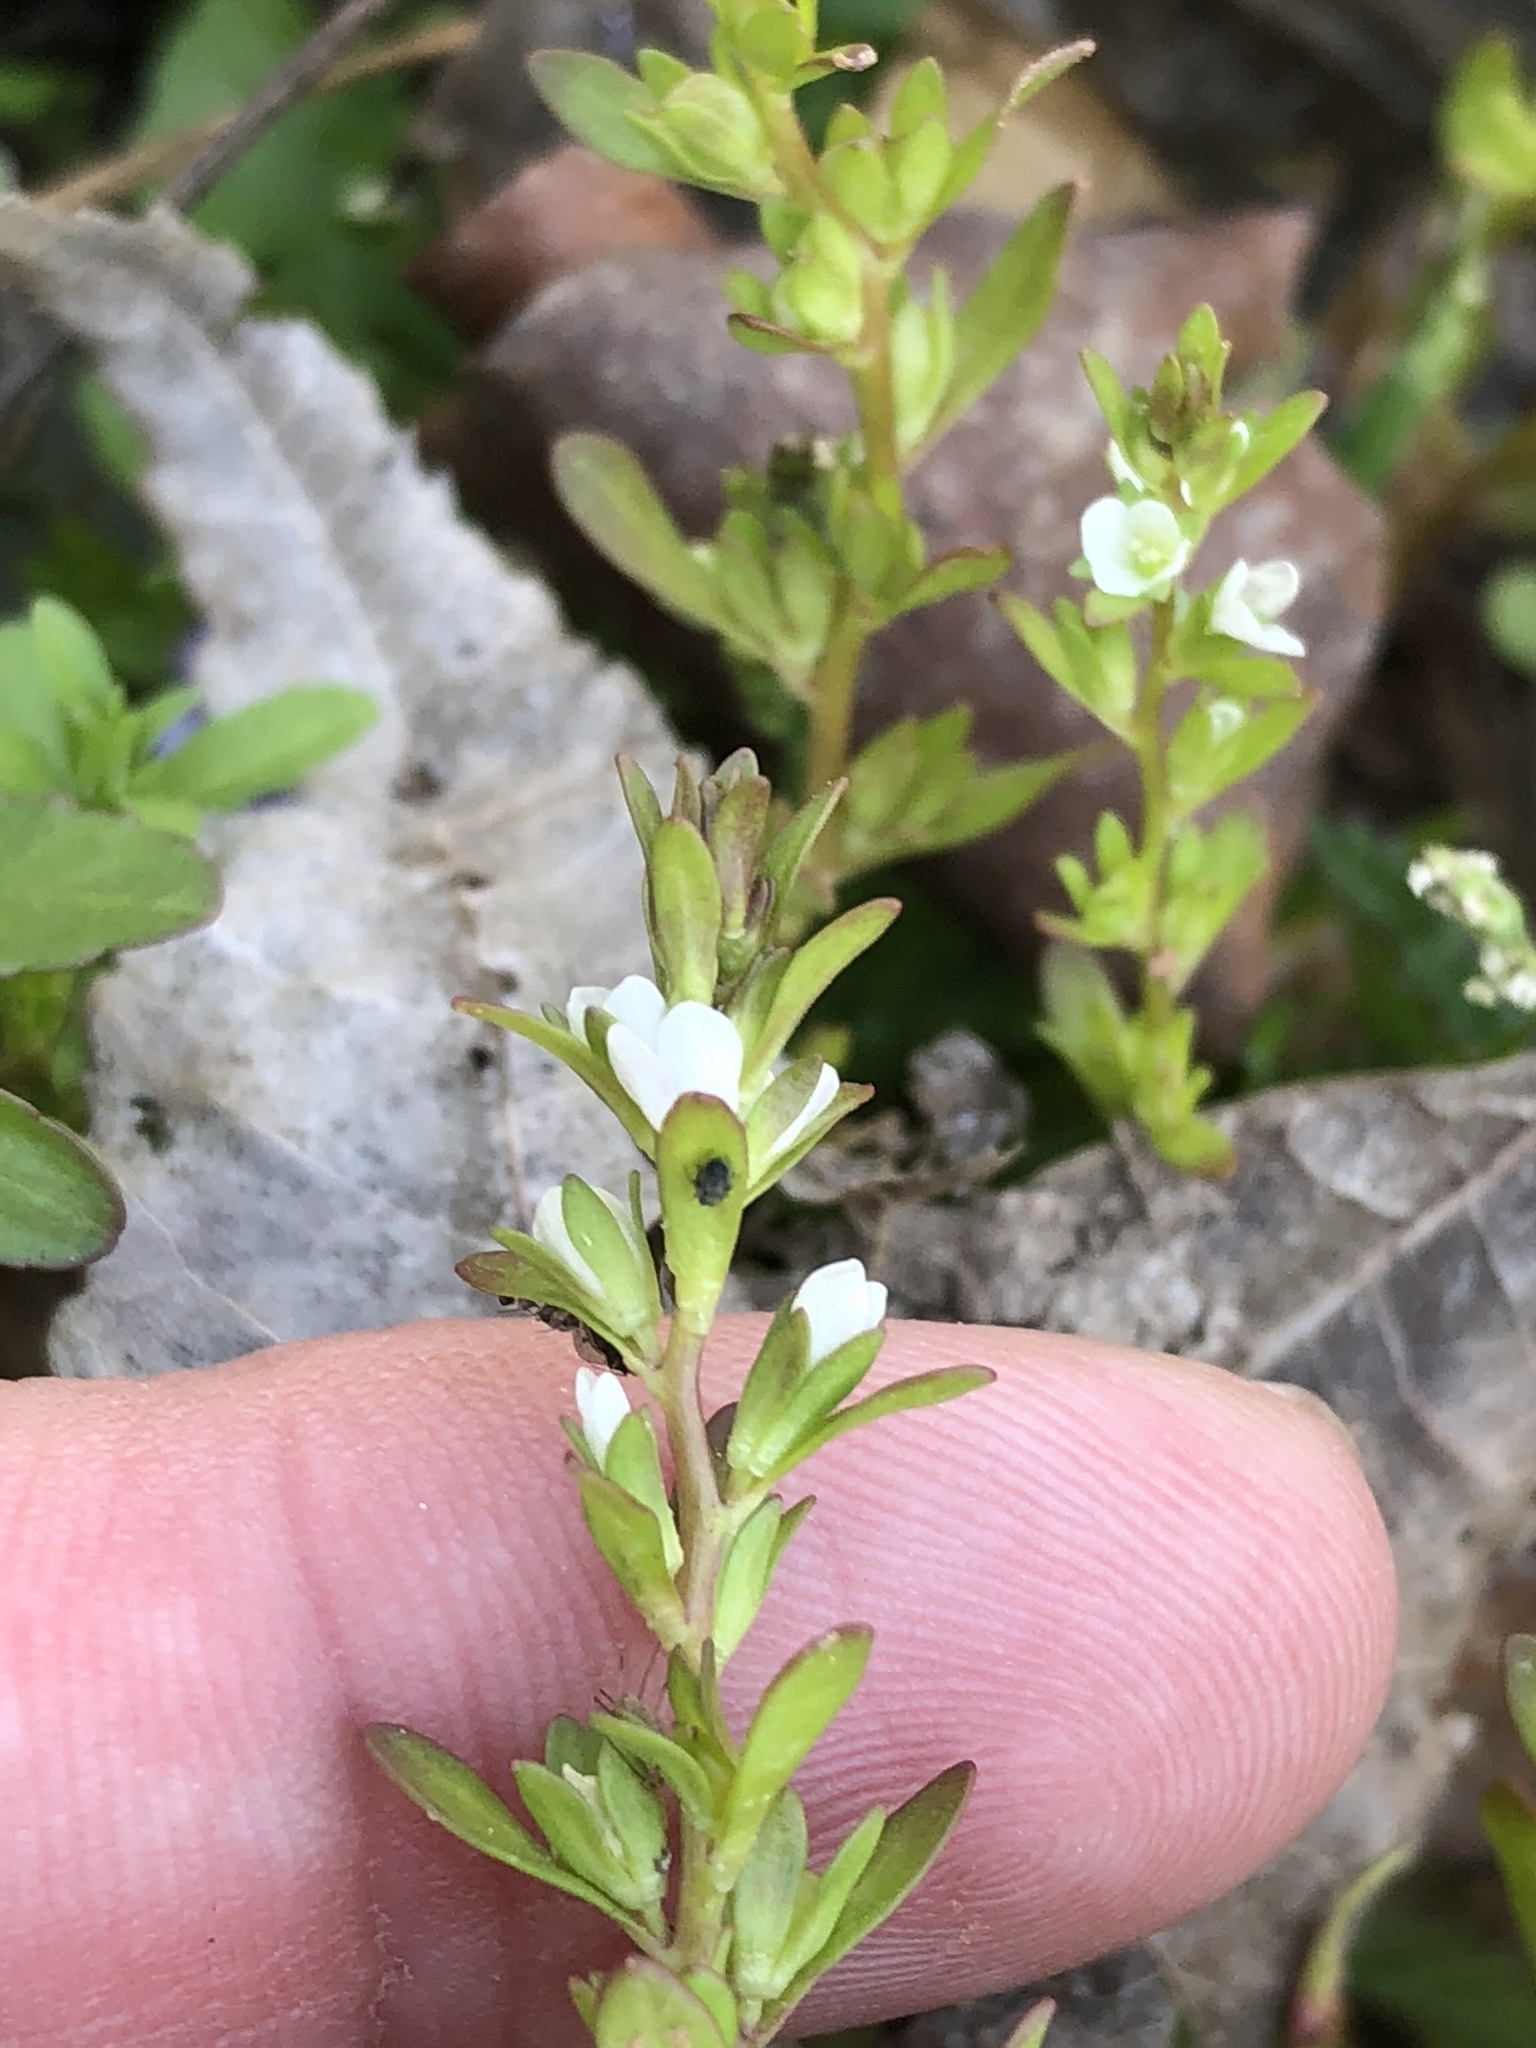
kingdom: Plantae
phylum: Tracheophyta
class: Magnoliopsida
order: Lamiales
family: Plantaginaceae
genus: Veronica
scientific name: Veronica peregrina
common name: Neckweed
